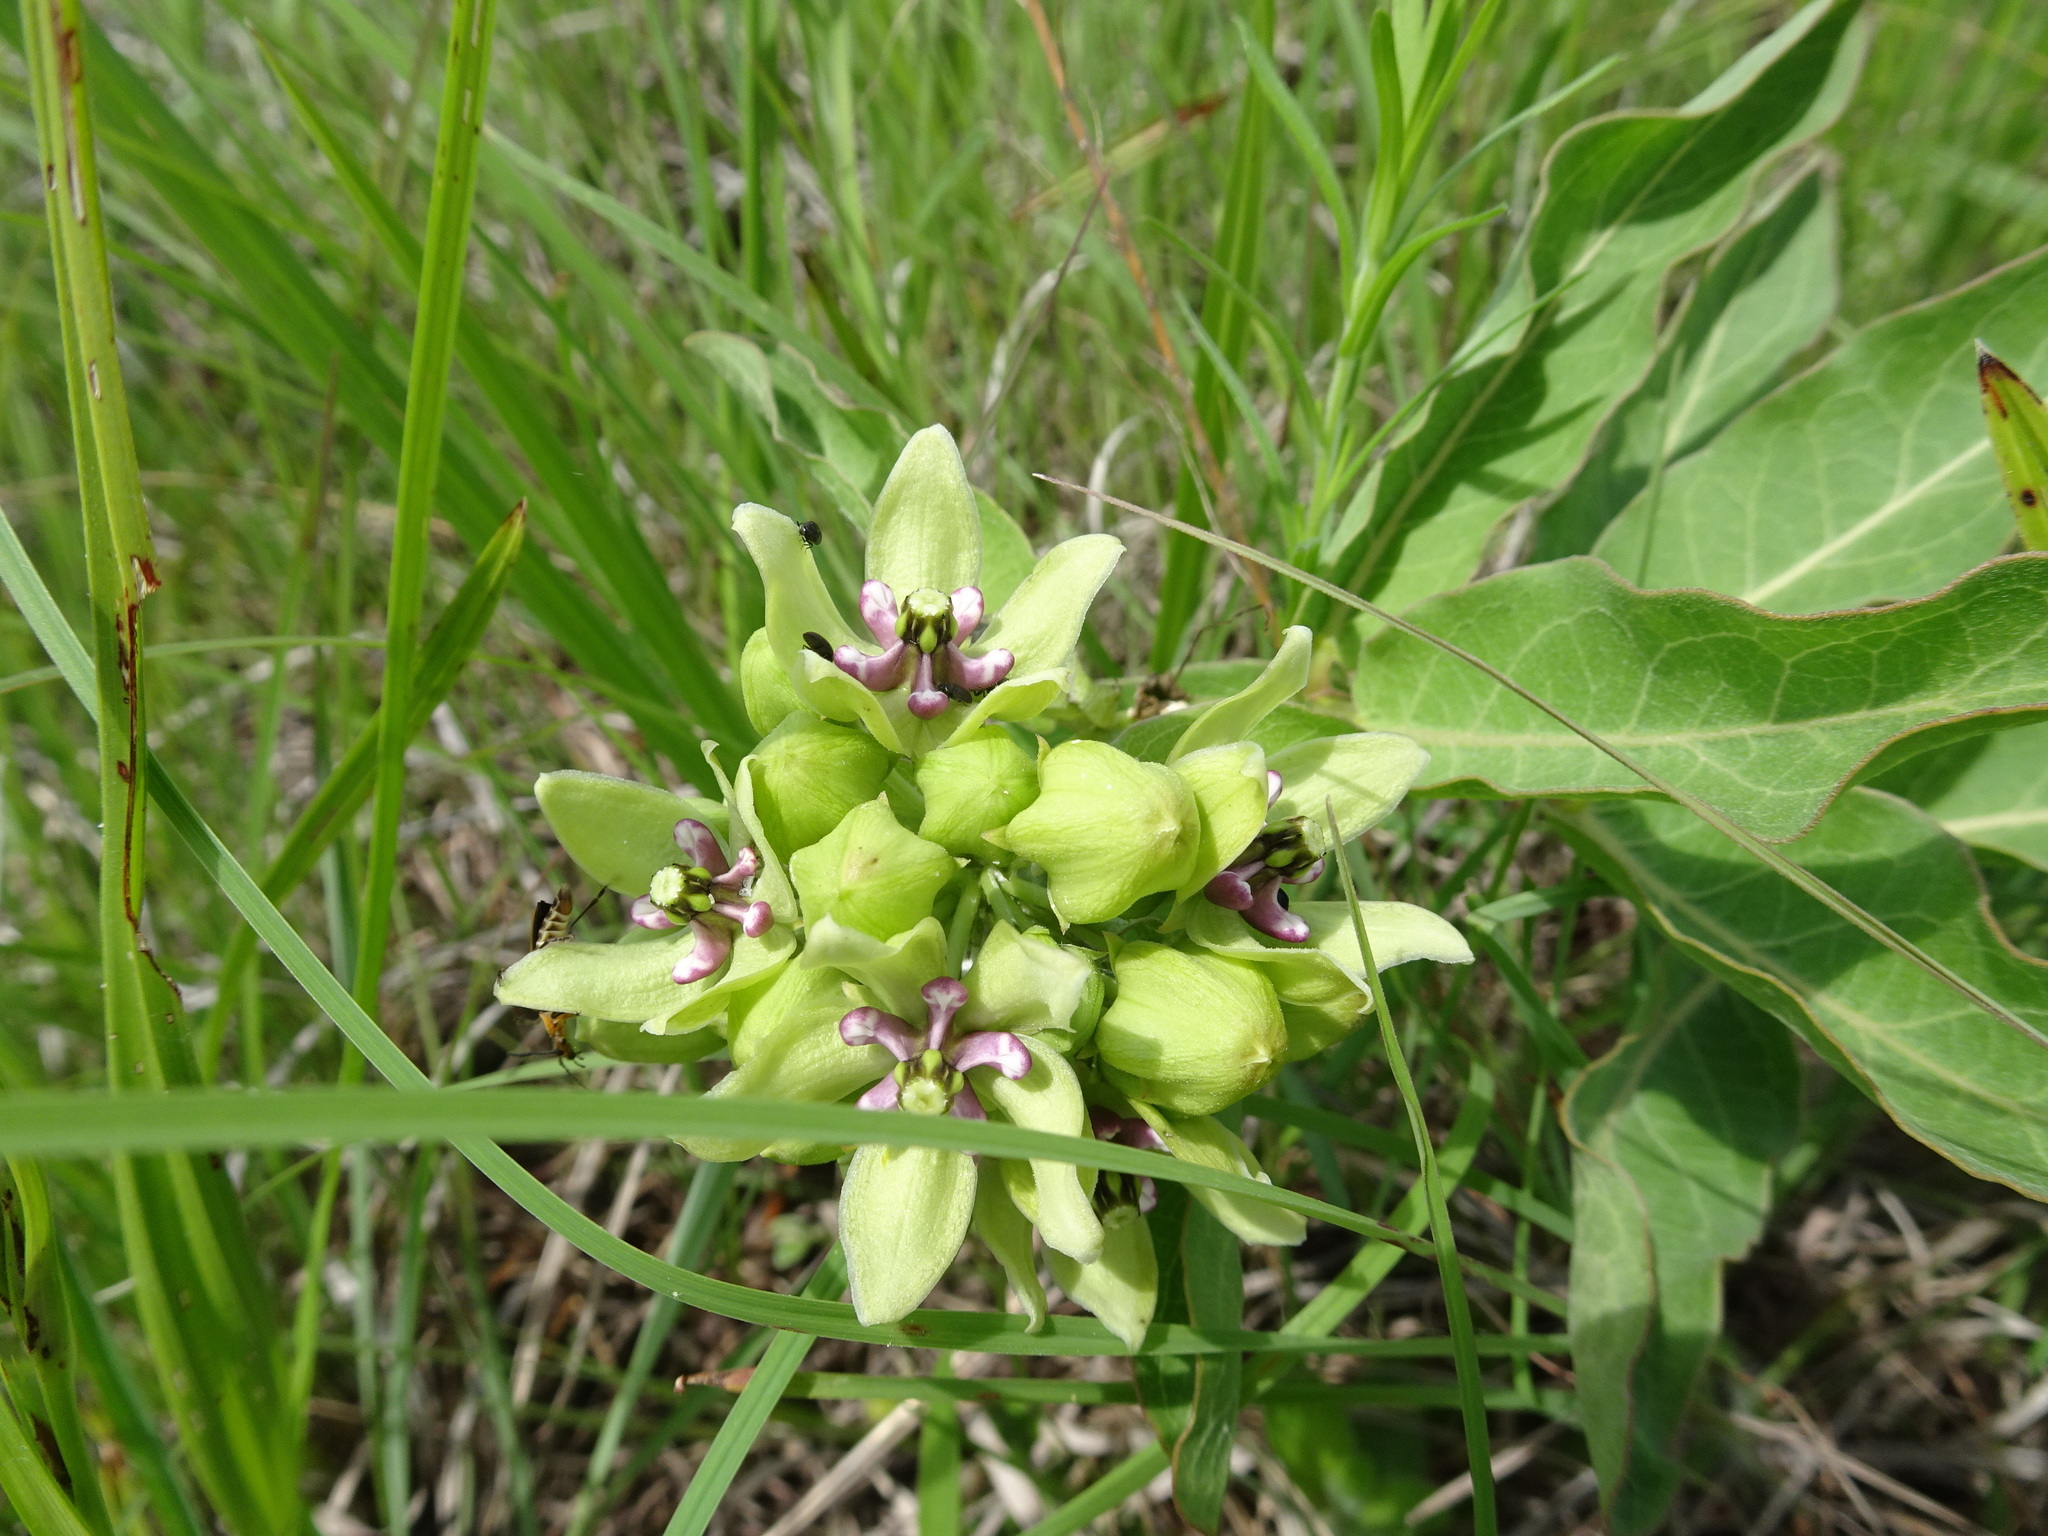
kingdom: Plantae
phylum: Tracheophyta
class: Magnoliopsida
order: Gentianales
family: Apocynaceae
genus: Asclepias
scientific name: Asclepias viridis
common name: Antelope-horns
